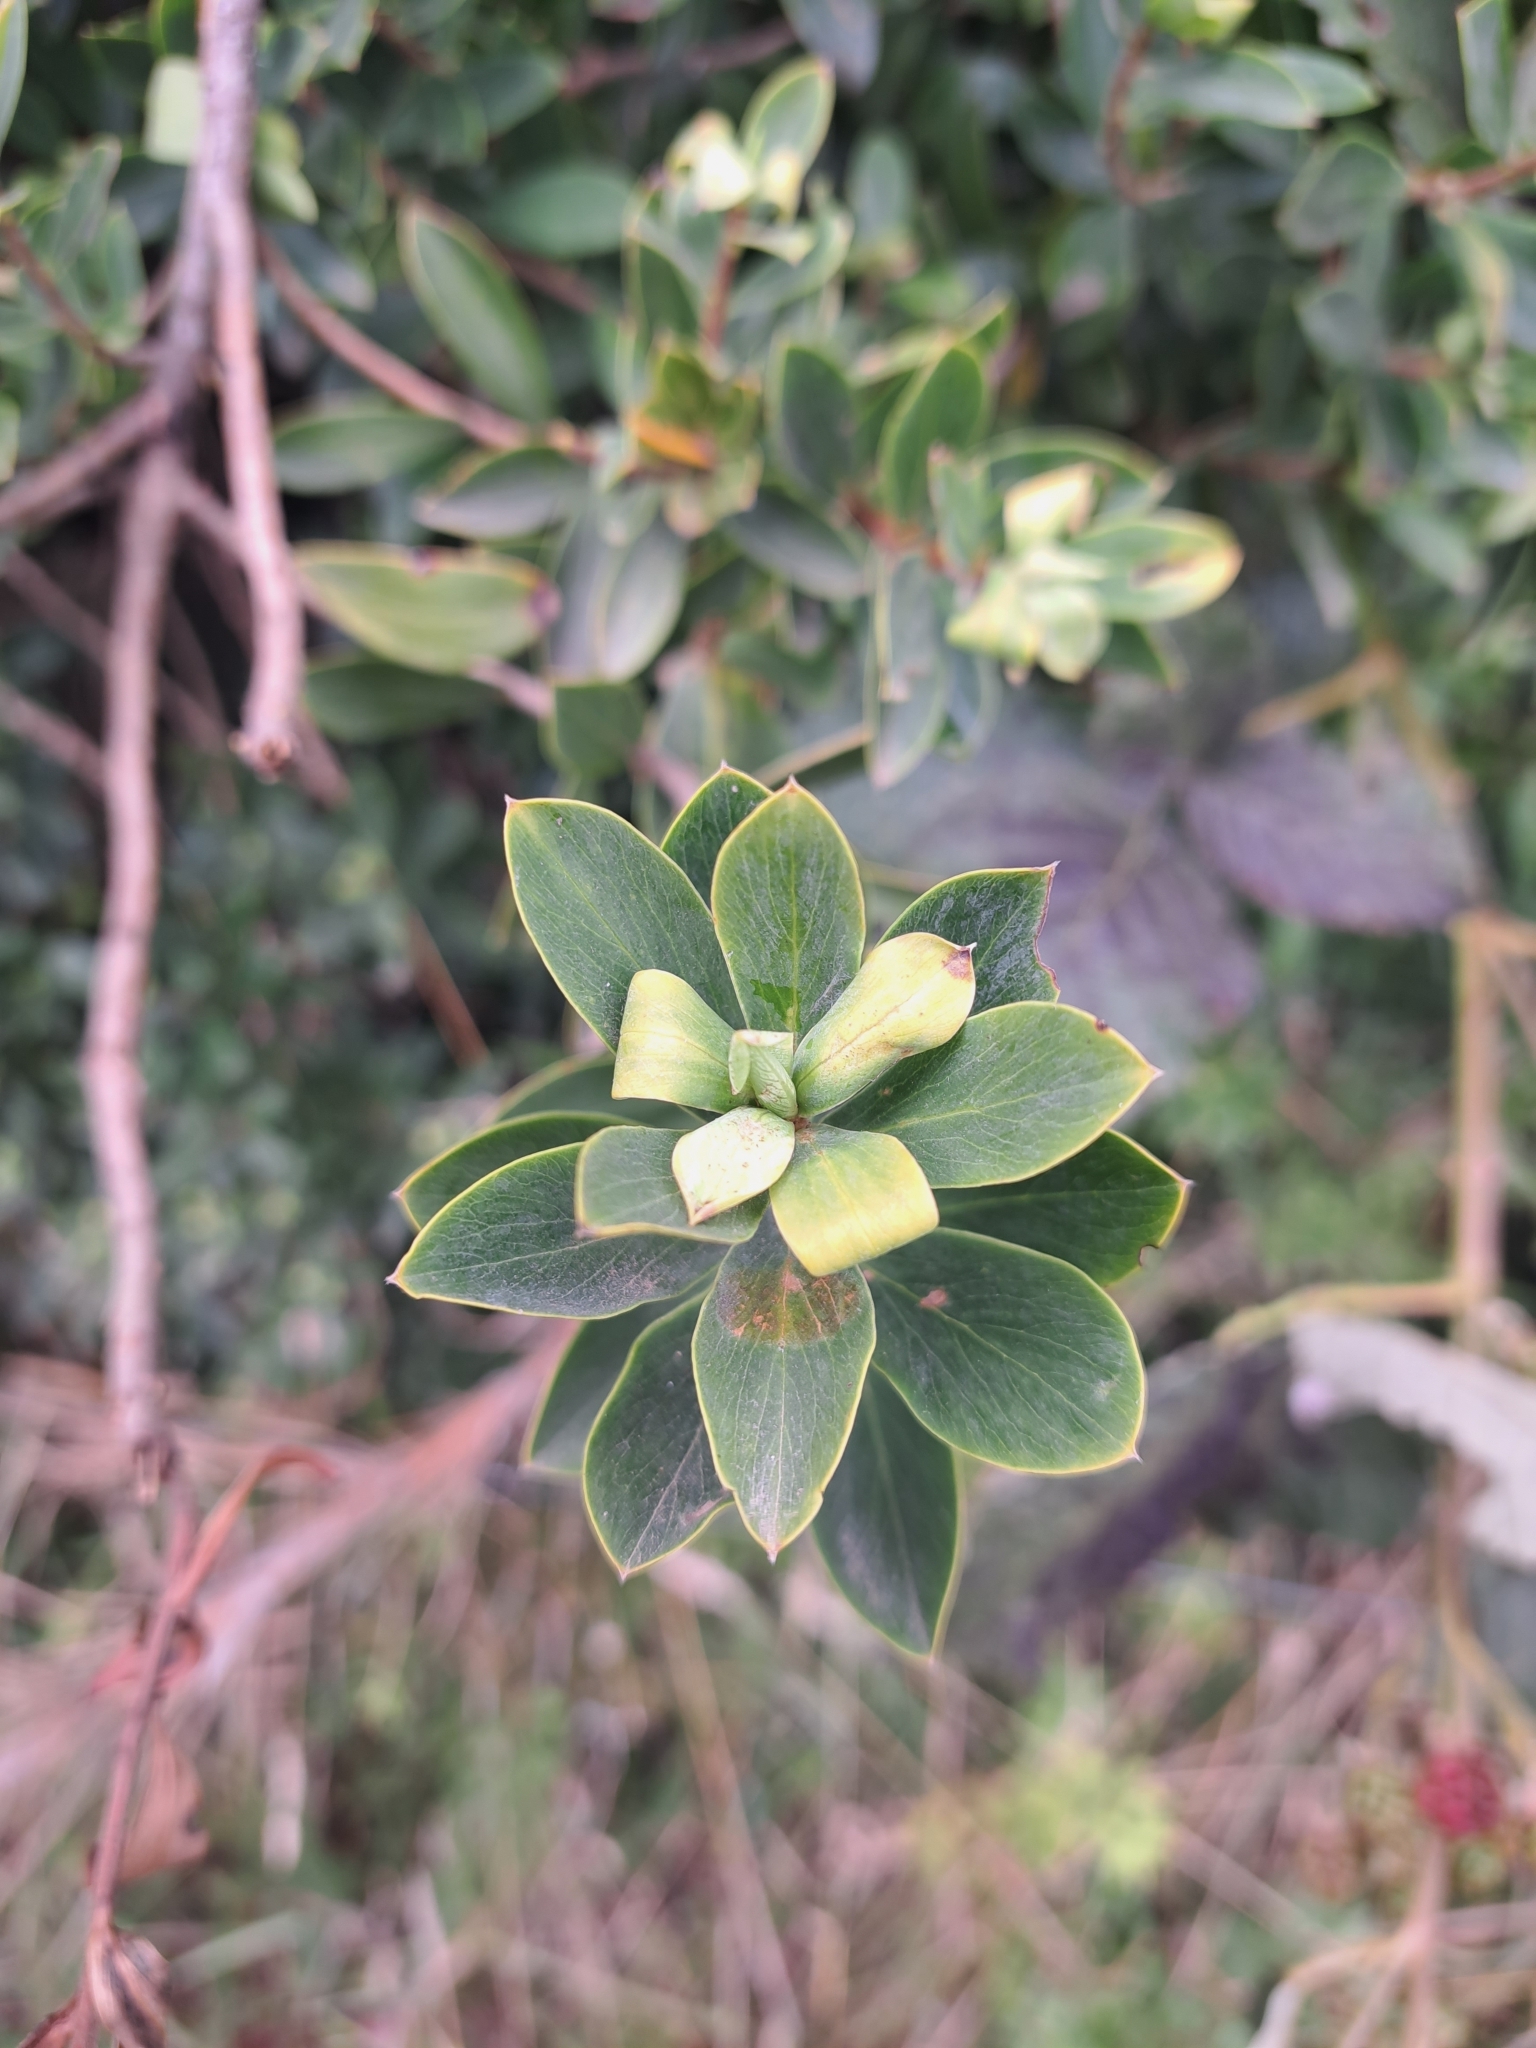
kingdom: Plantae
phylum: Tracheophyta
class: Magnoliopsida
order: Malvales
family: Thymelaeaceae
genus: Ovidia
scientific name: Ovidia andina
